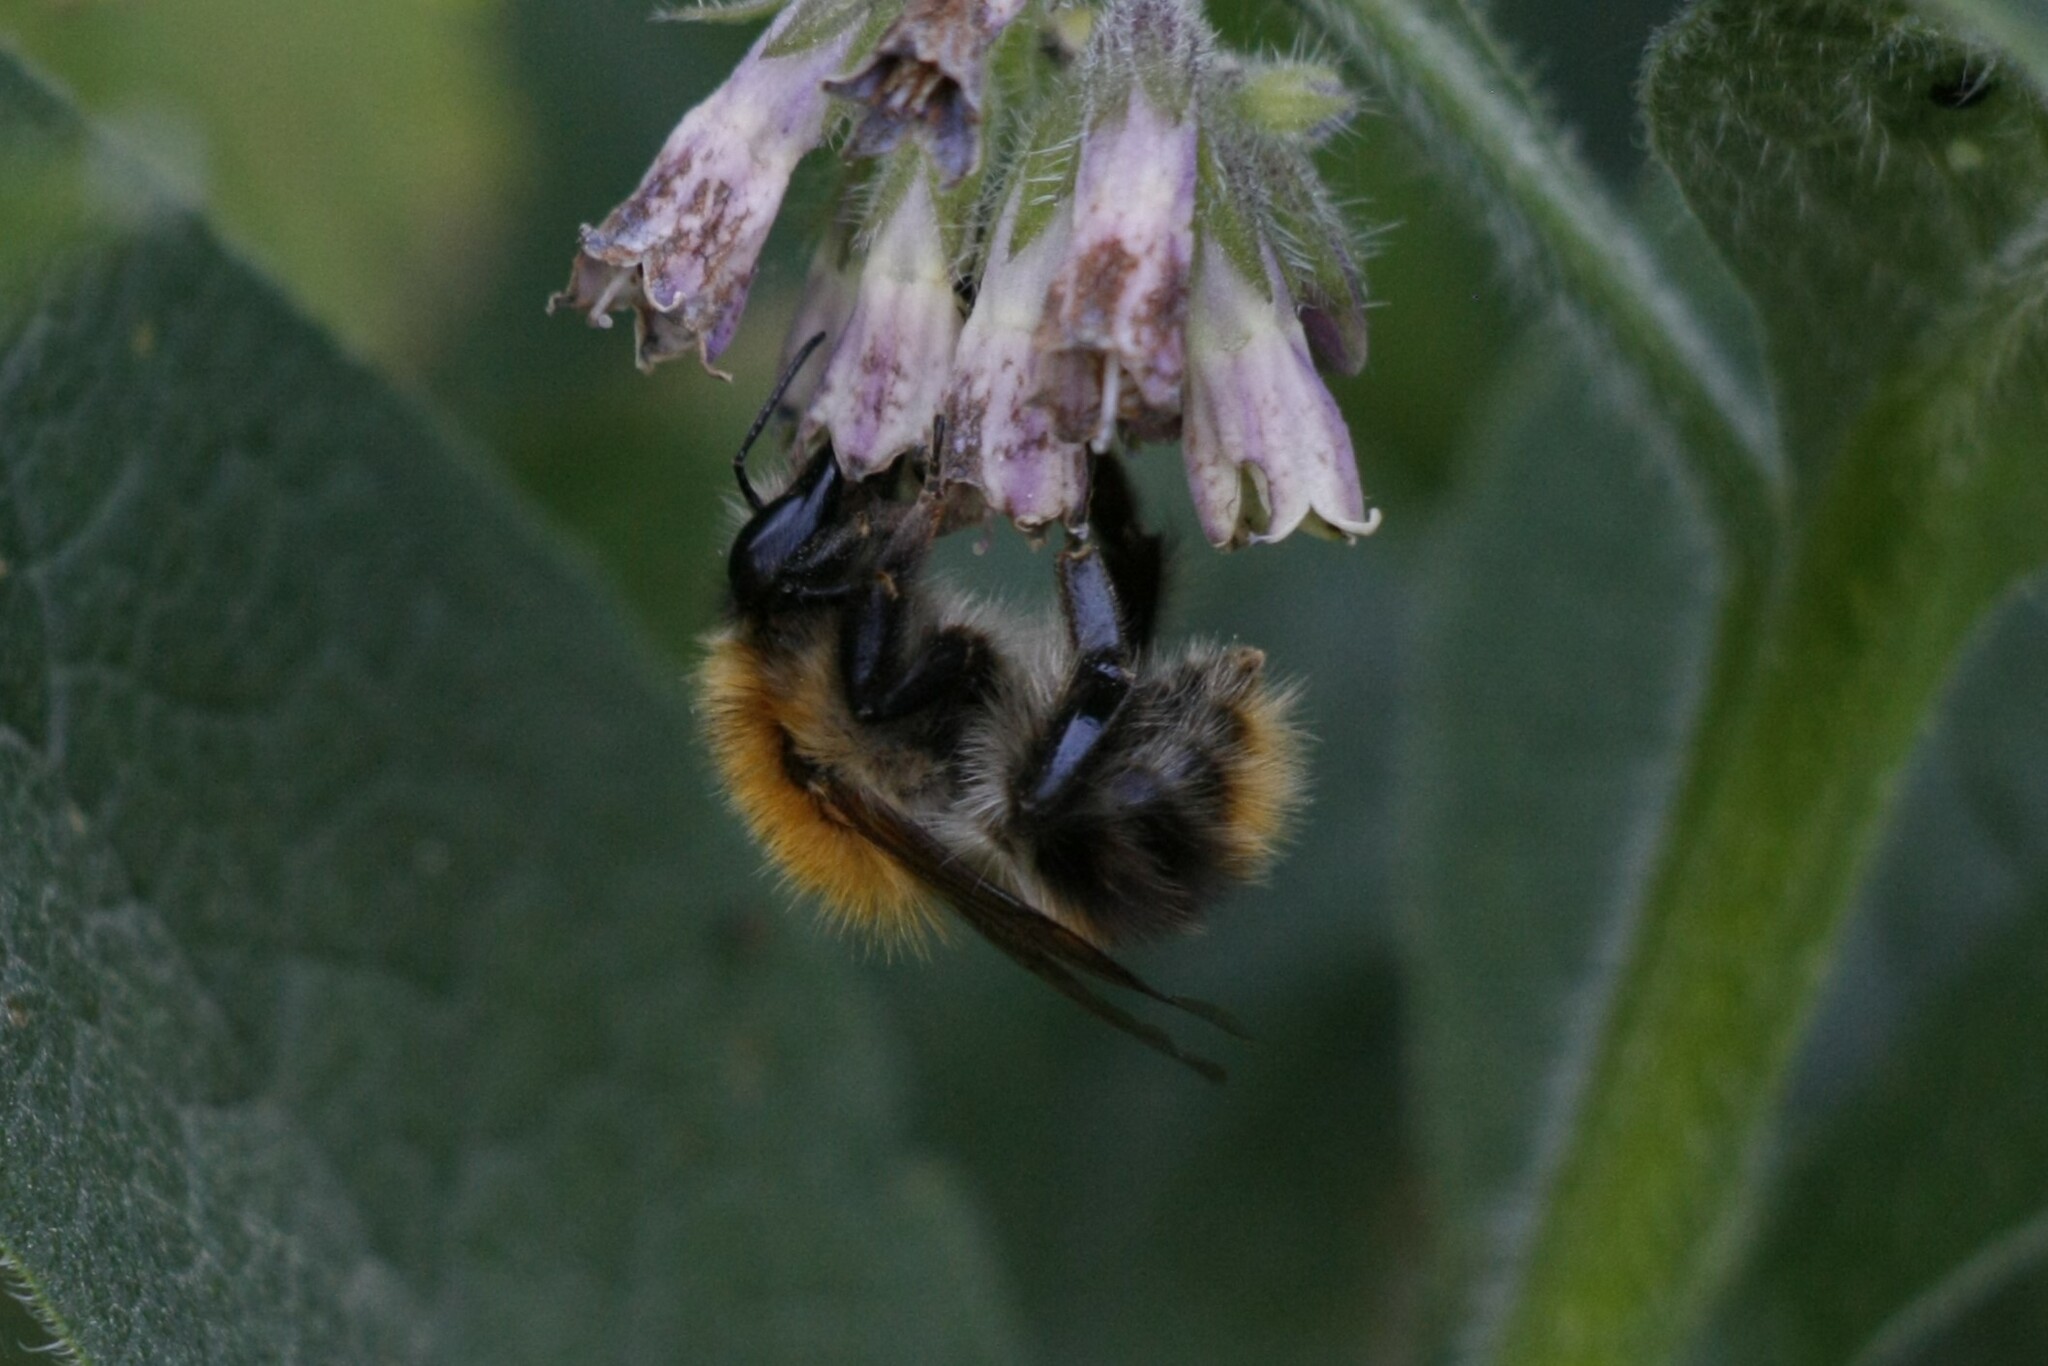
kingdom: Animalia
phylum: Arthropoda
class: Insecta
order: Hymenoptera
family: Apidae
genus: Bombus
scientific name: Bombus pascuorum
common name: Common carder bee
